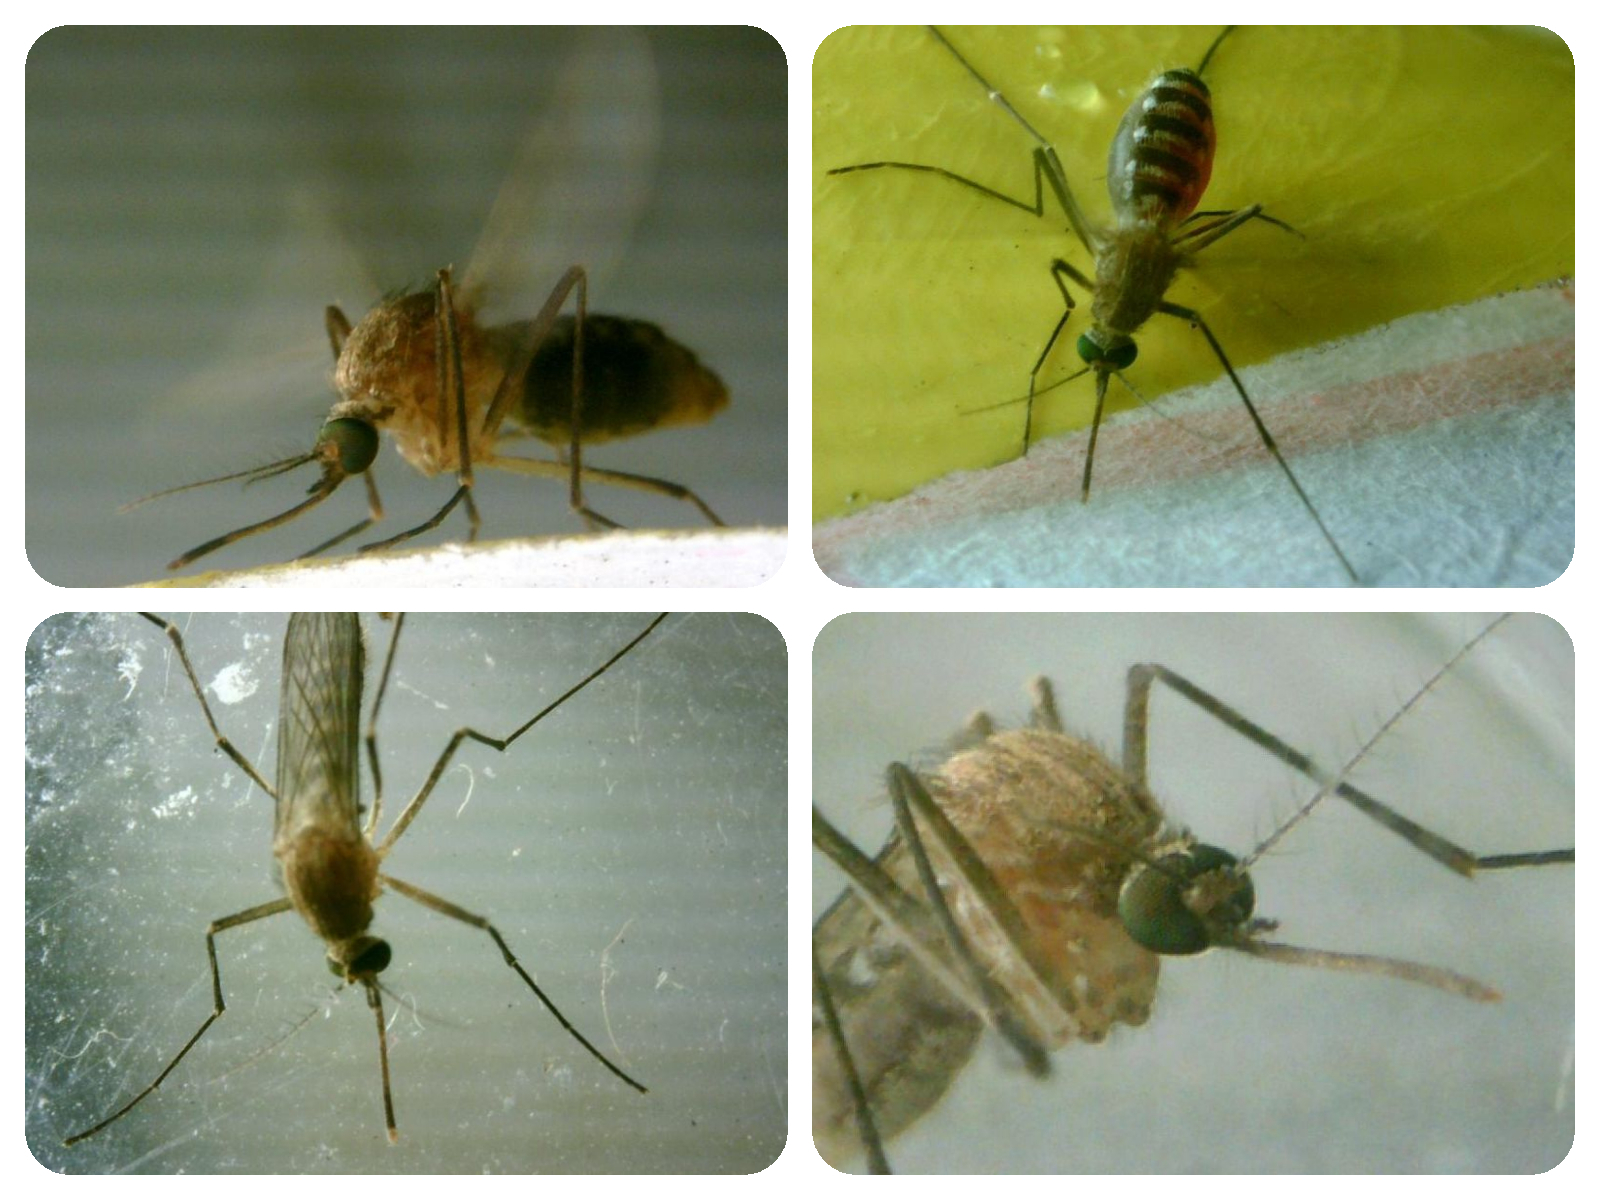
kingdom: Animalia
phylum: Arthropoda
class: Insecta
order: Diptera
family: Culicidae
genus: Culex
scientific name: Culex pipiens
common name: Mosquito
